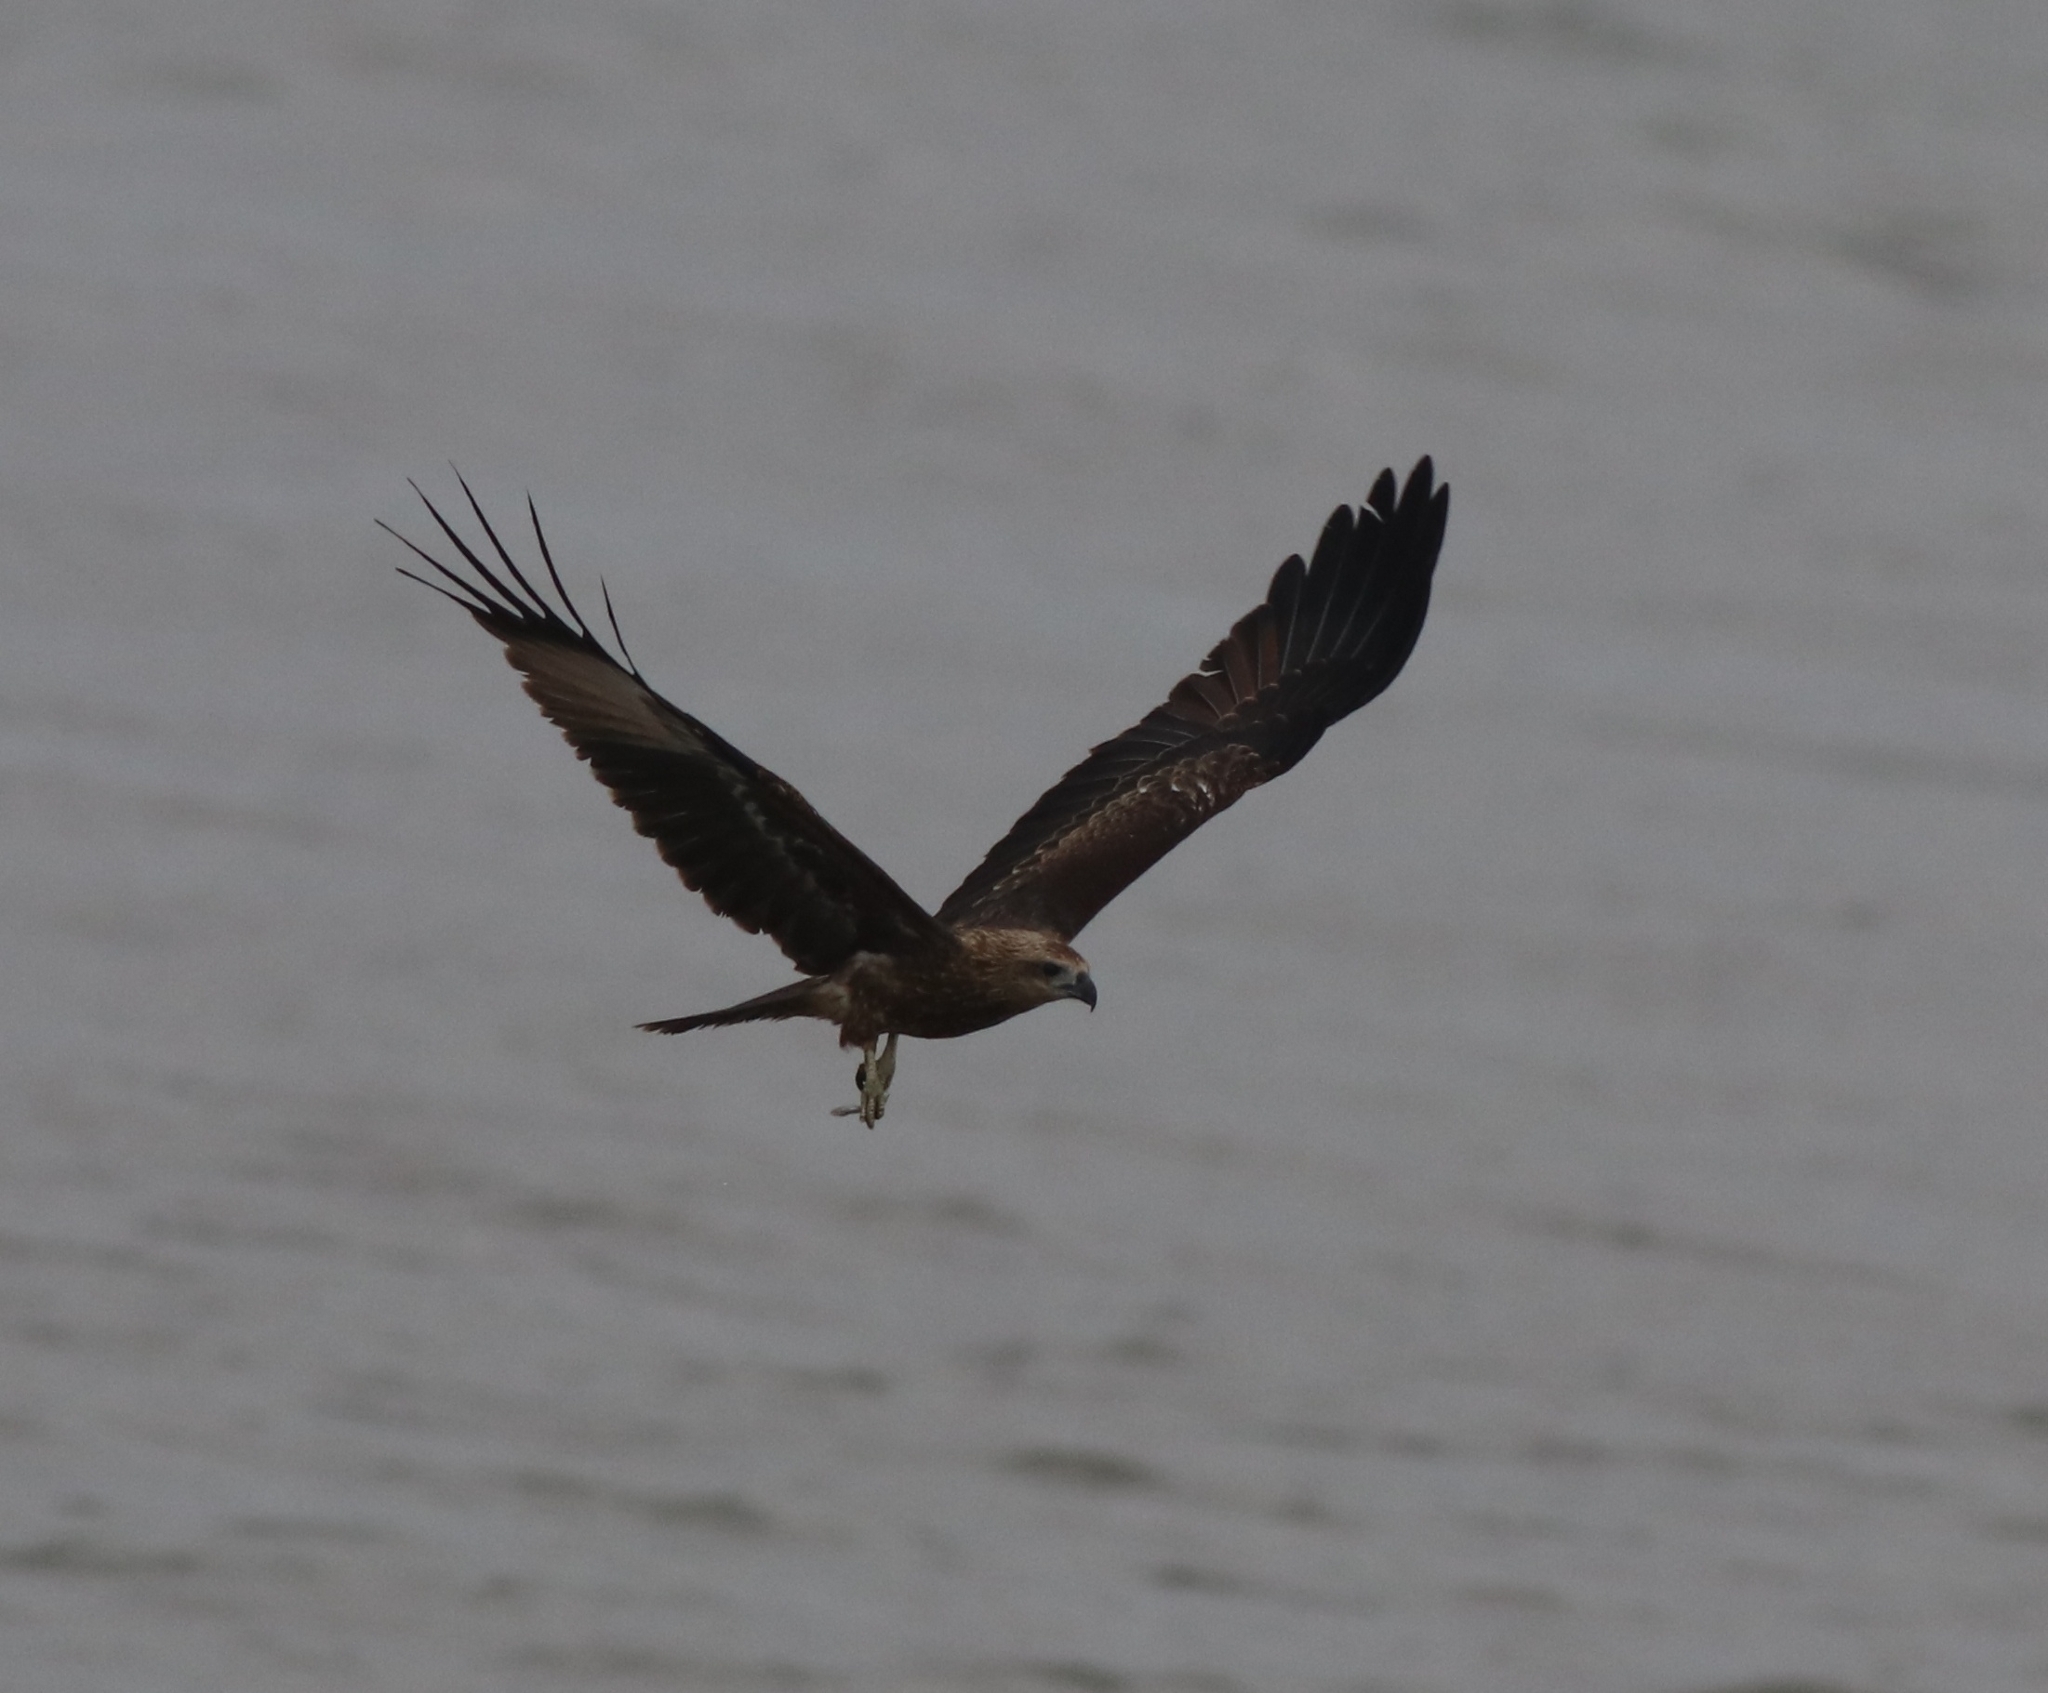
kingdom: Animalia
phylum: Chordata
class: Aves
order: Accipitriformes
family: Accipitridae
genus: Haliastur
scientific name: Haliastur indus
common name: Brahminy kite
